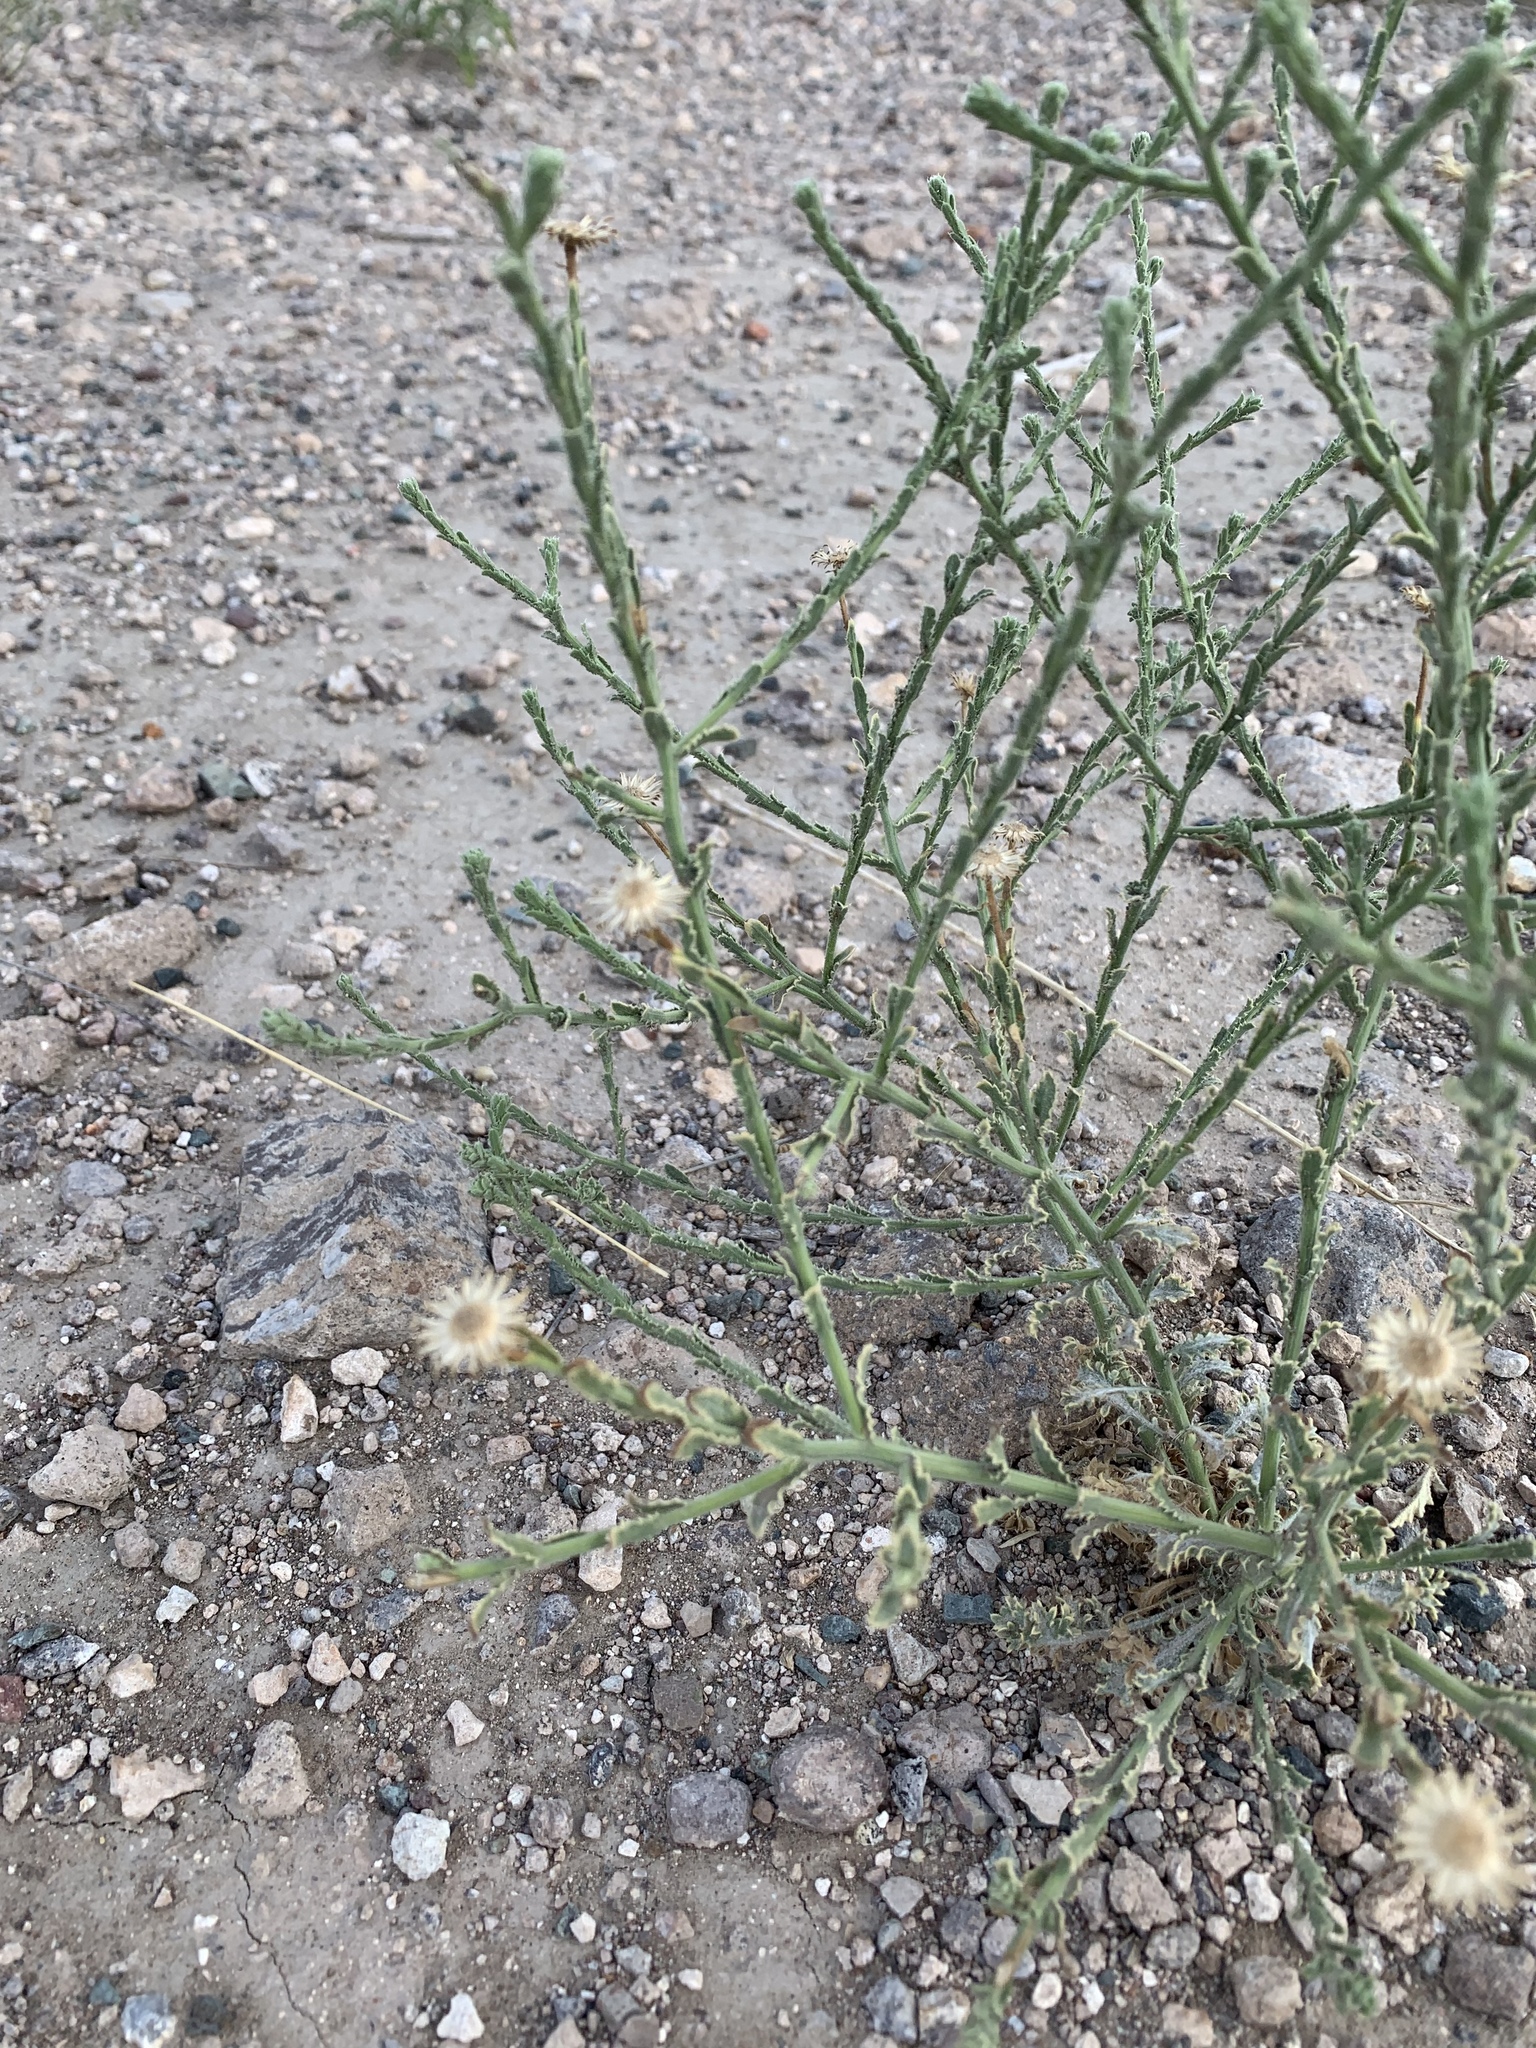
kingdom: Plantae
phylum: Tracheophyta
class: Magnoliopsida
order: Asterales
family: Asteraceae
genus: Xanthisma
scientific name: Xanthisma spinulosum
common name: Spiny goldenweed
